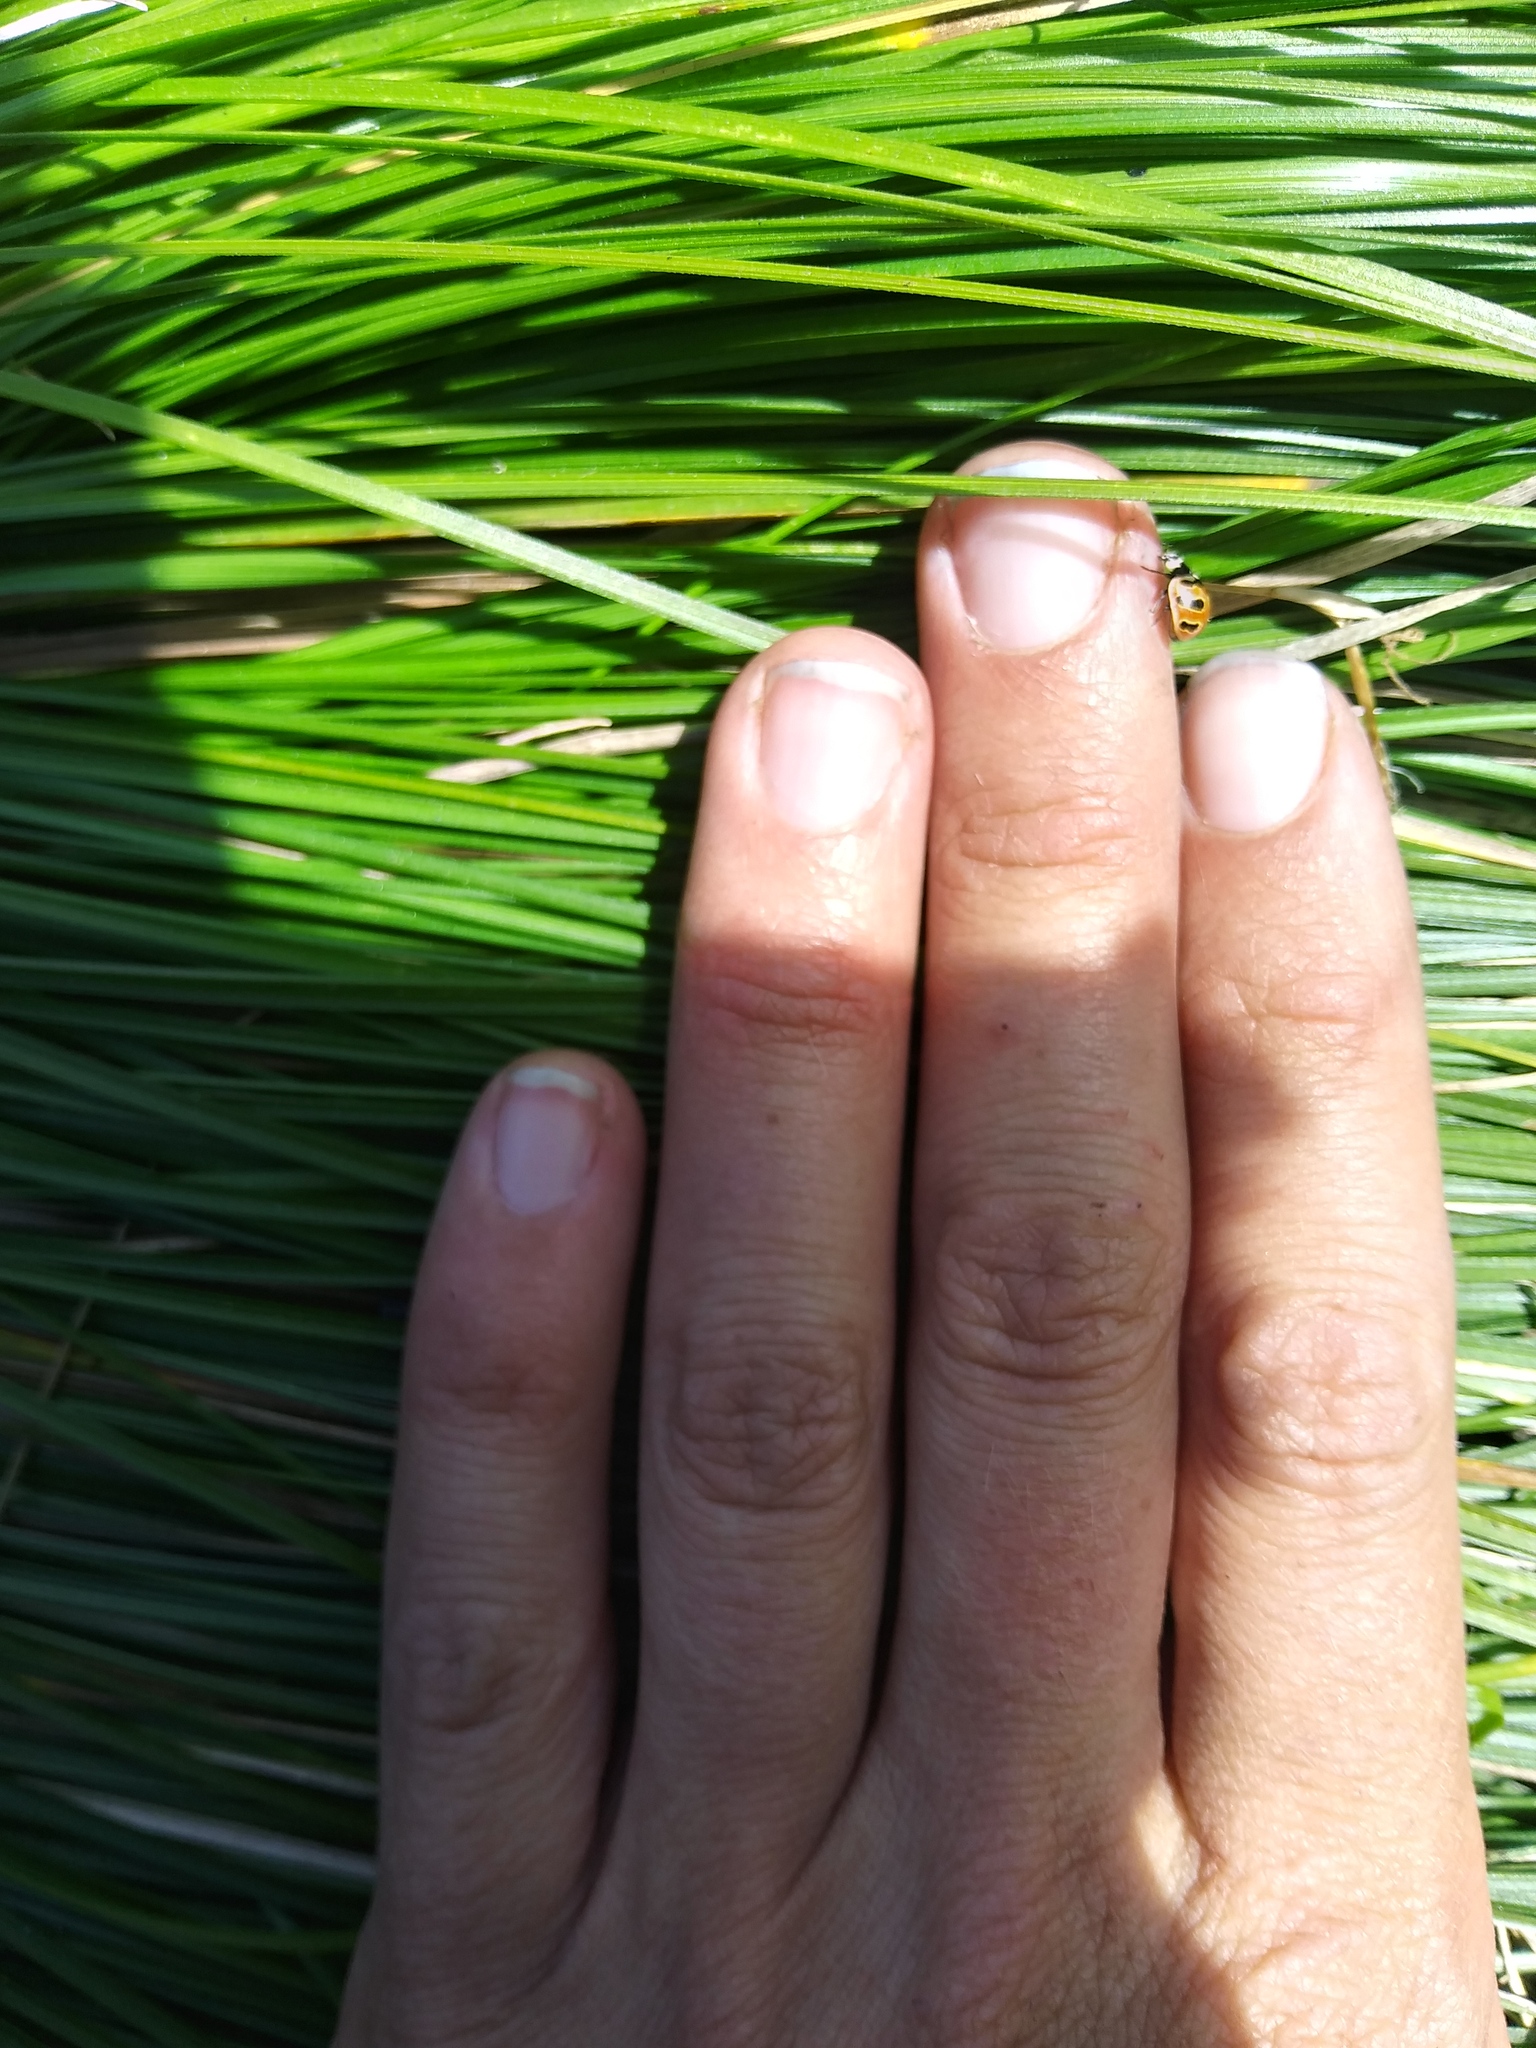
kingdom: Animalia
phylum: Arthropoda
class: Insecta
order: Coleoptera
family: Coccinellidae
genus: Coccinella
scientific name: Coccinella trifasciata
